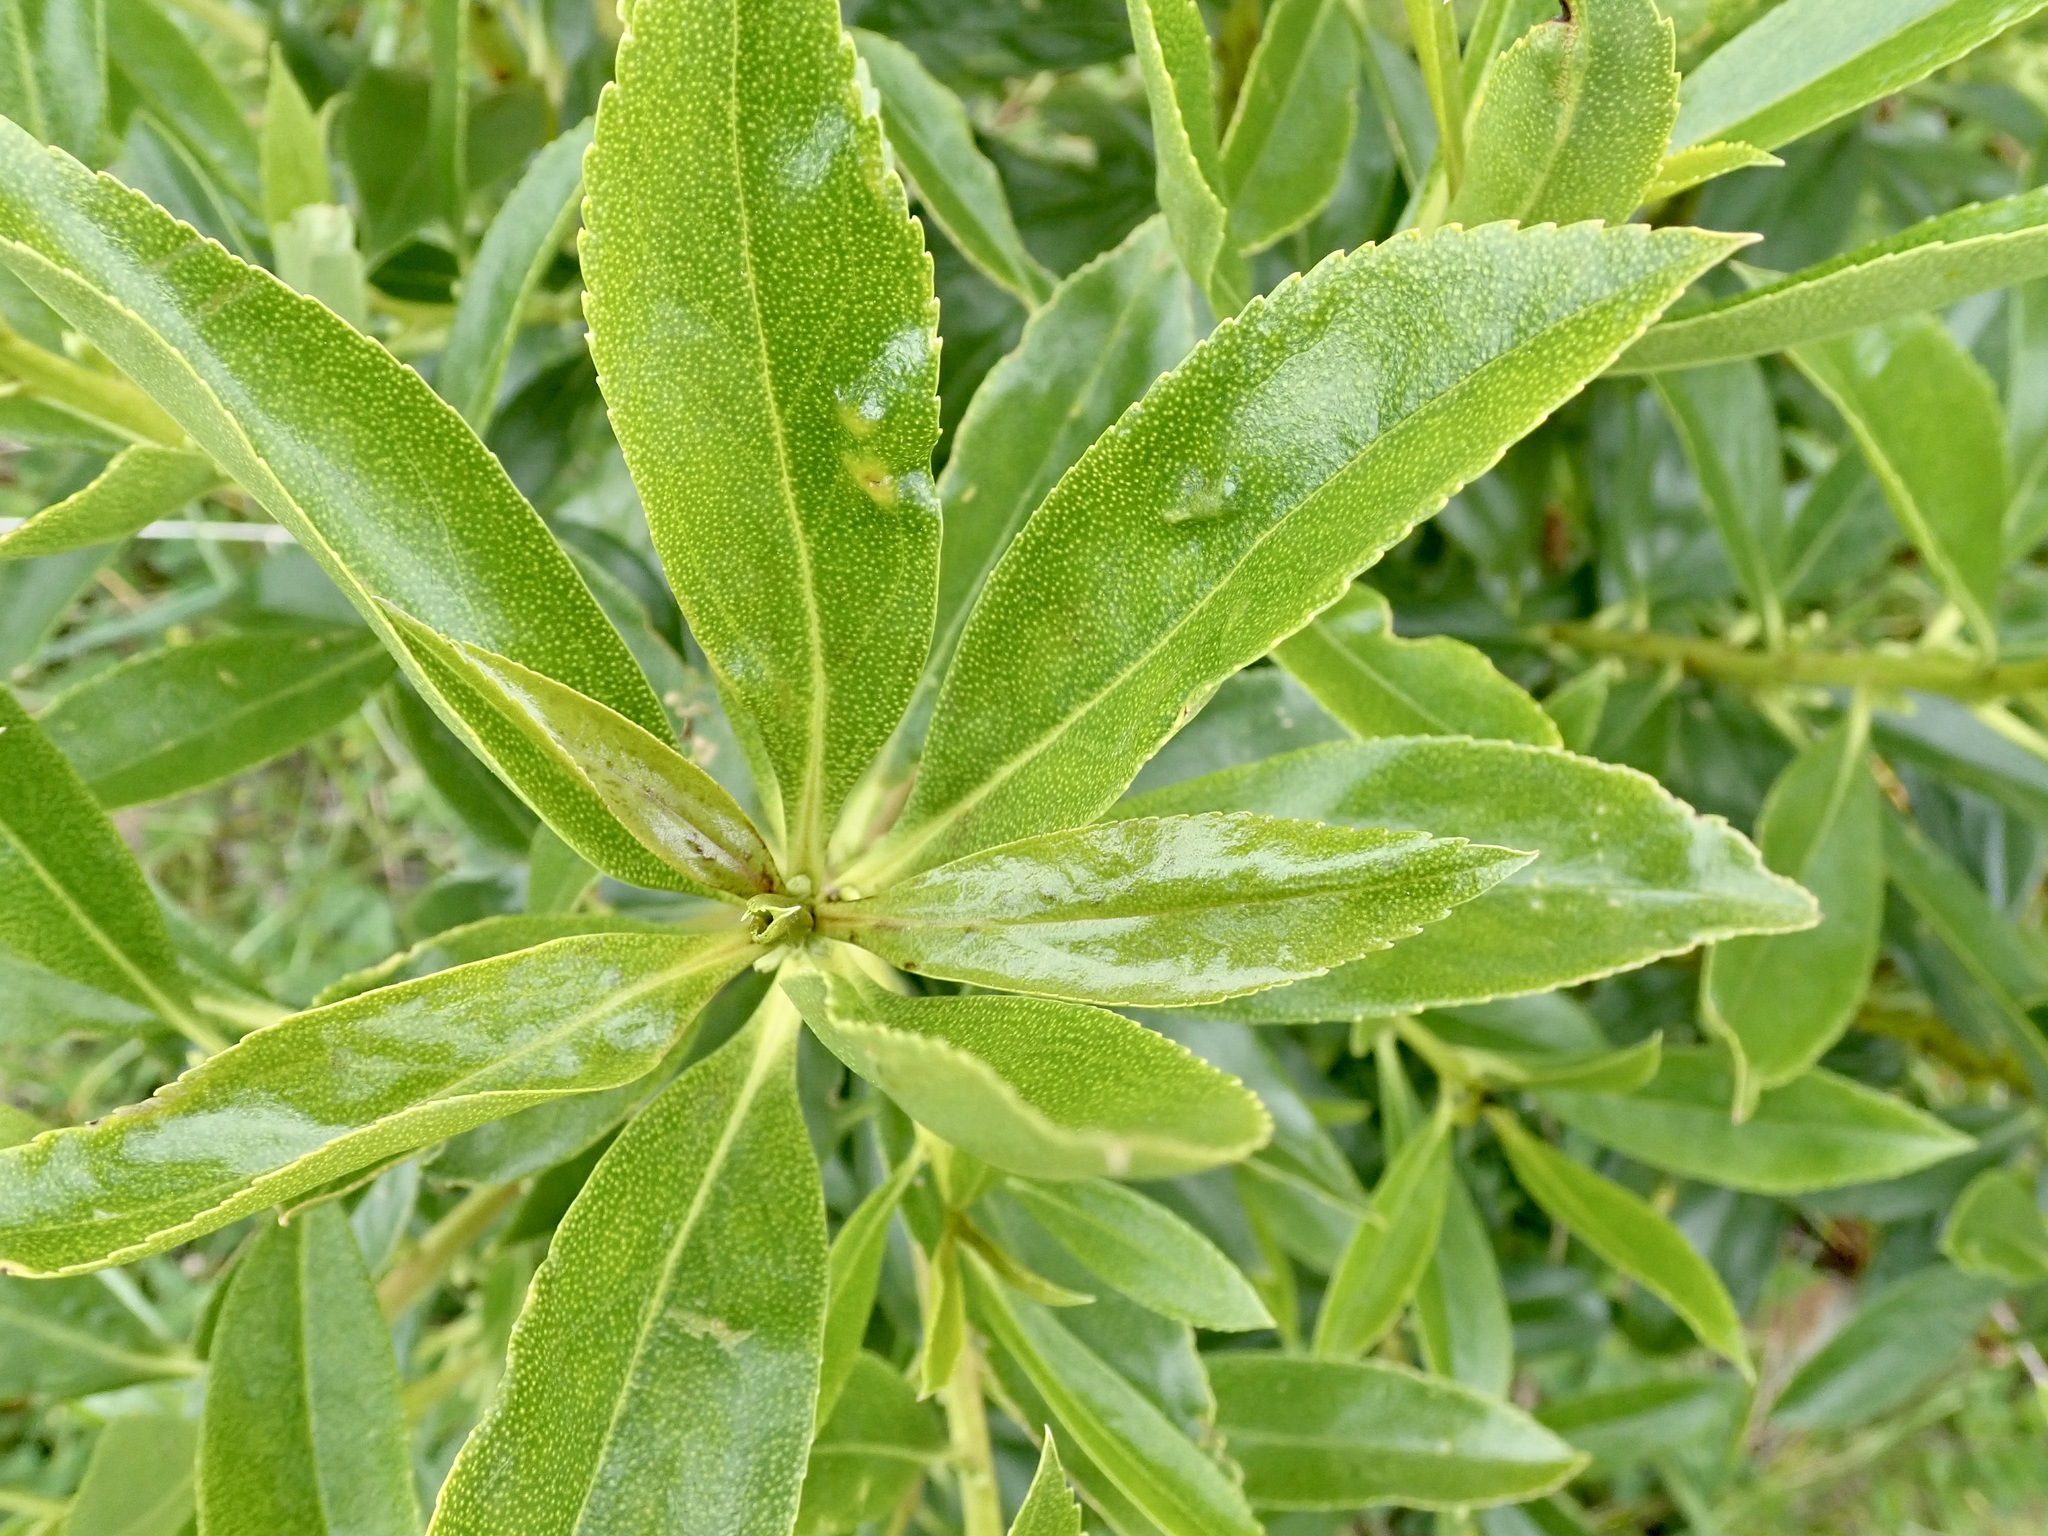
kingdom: Plantae
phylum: Tracheophyta
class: Magnoliopsida
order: Lamiales
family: Scrophulariaceae
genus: Myoporum
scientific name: Myoporum laetum
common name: Ngaio tree
